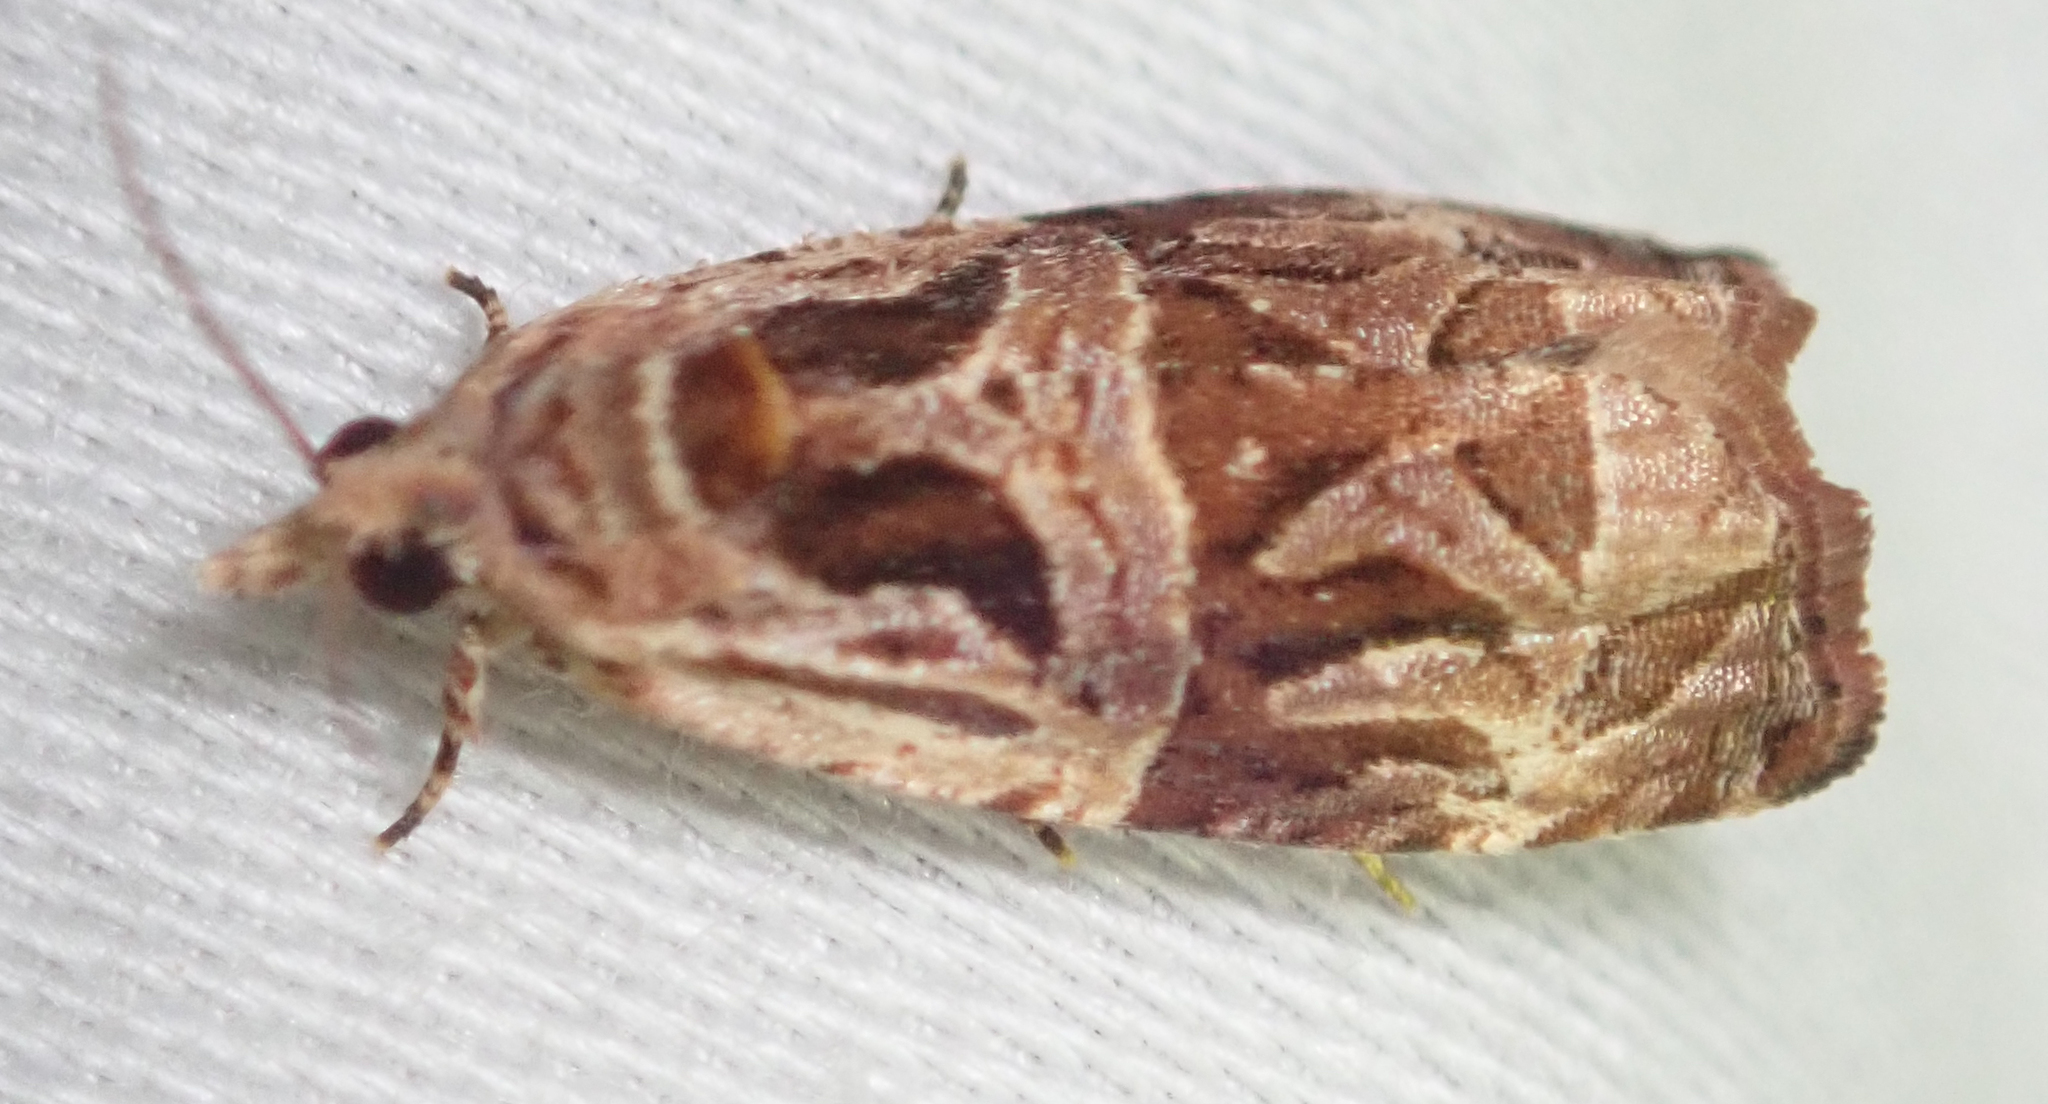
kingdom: Animalia
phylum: Arthropoda
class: Insecta
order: Lepidoptera
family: Tortricidae
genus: Eccopsis
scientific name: Eccopsis incultana
